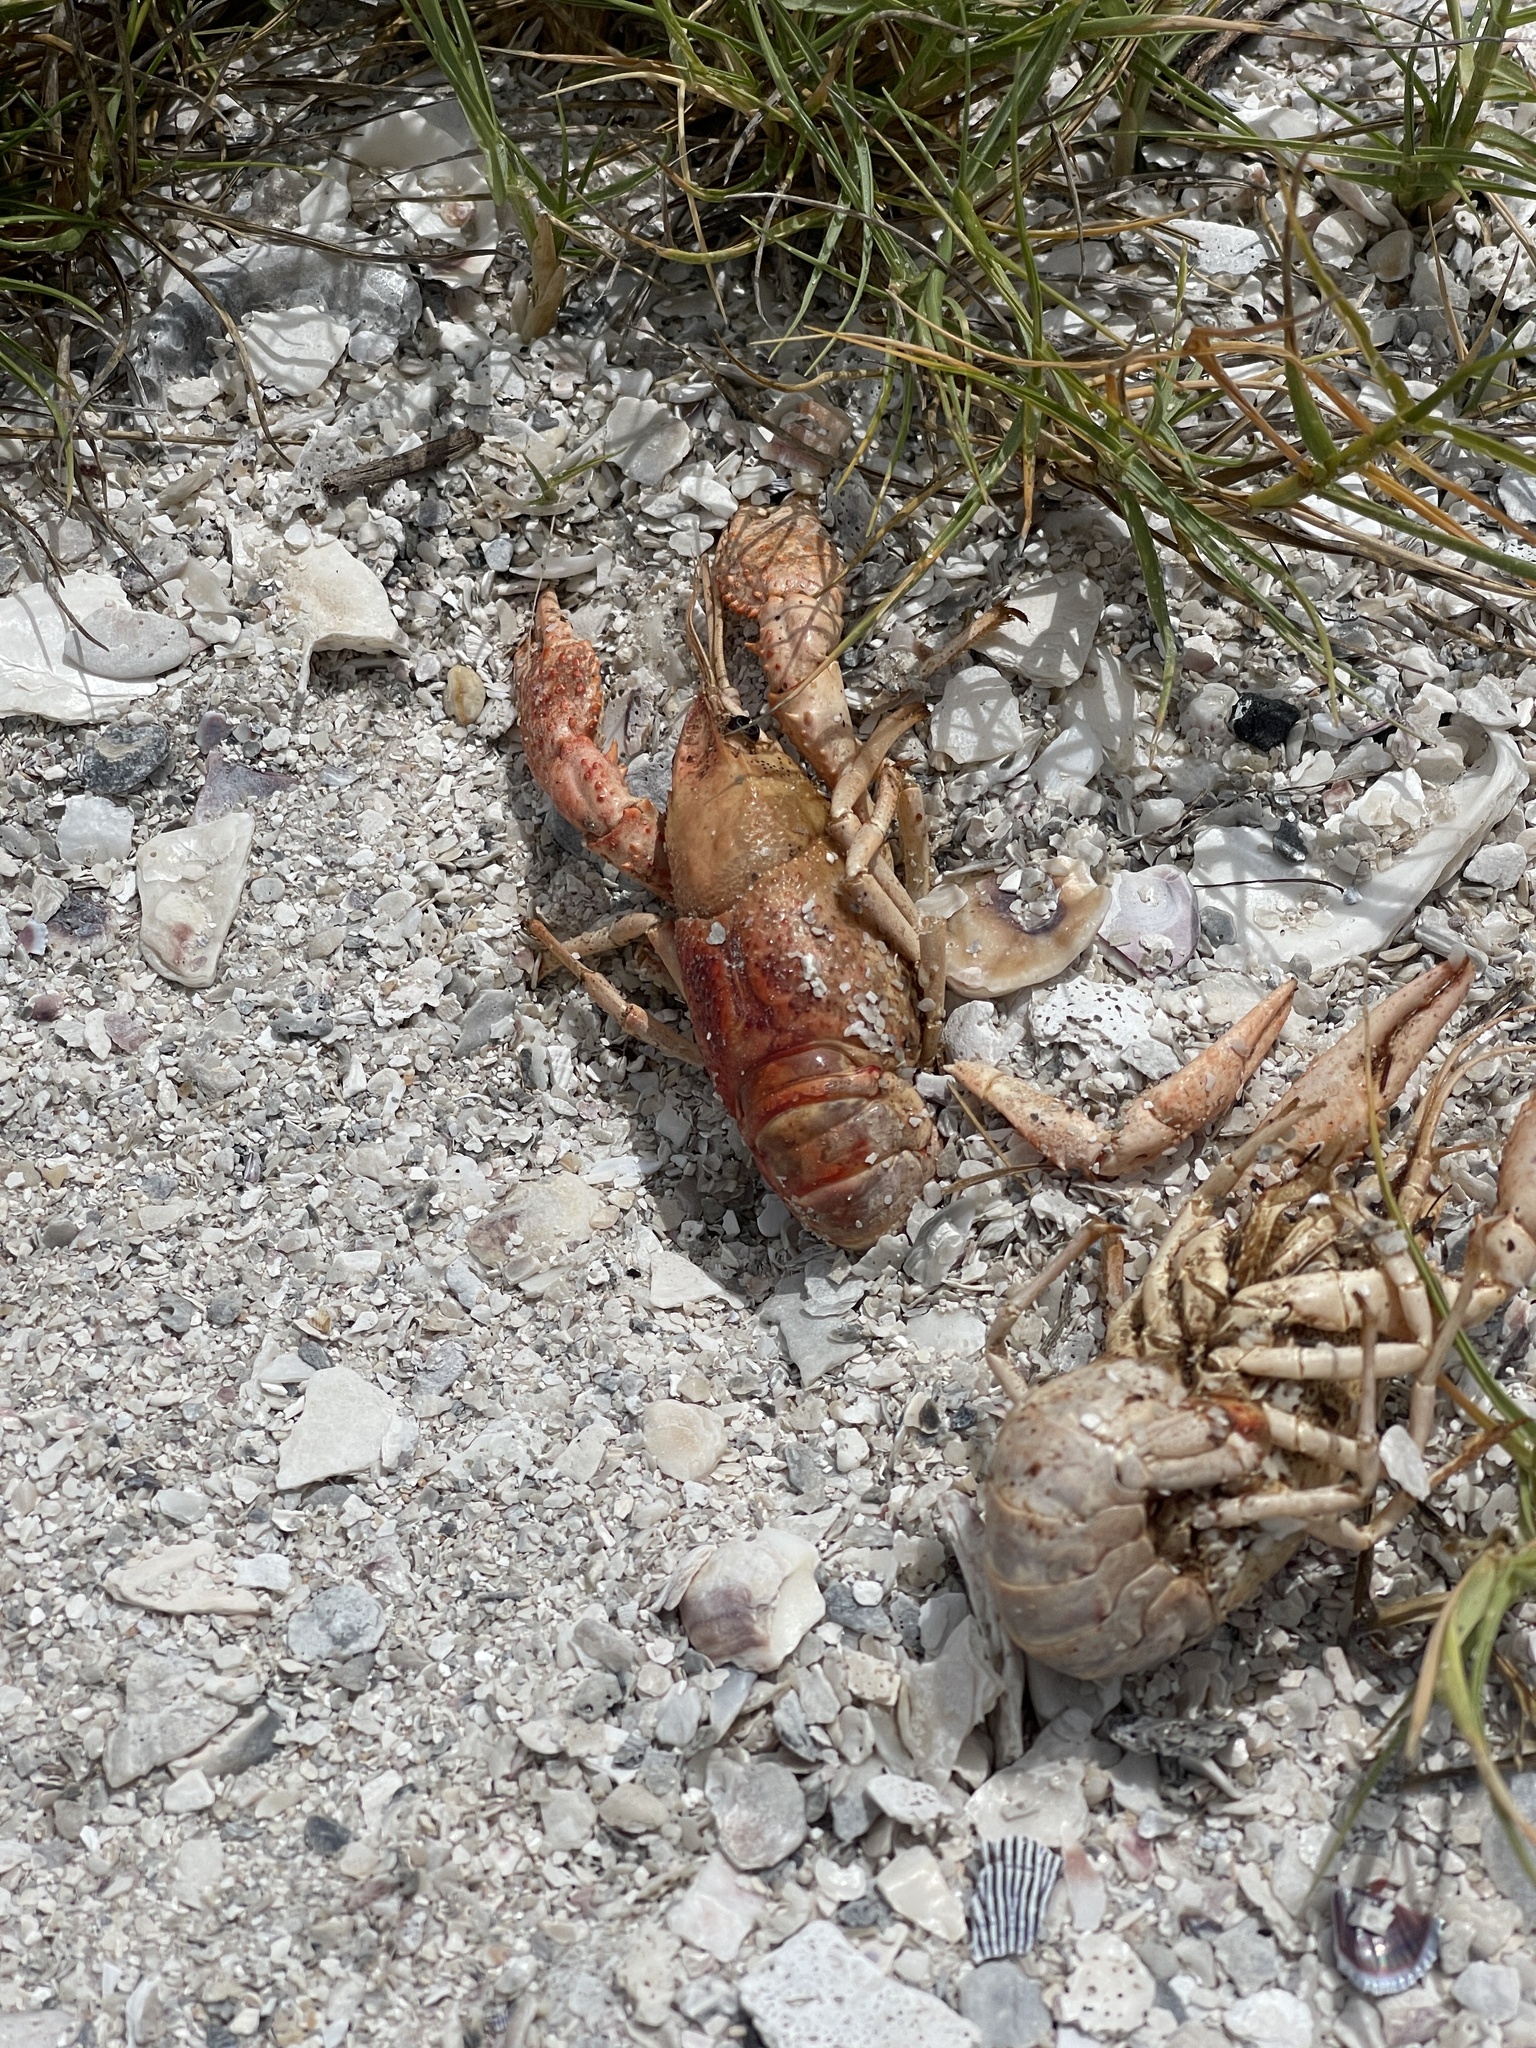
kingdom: Animalia
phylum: Arthropoda
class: Malacostraca
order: Decapoda
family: Cambaridae
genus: Procambarus
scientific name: Procambarus clarkii
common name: Red swamp crayfish
